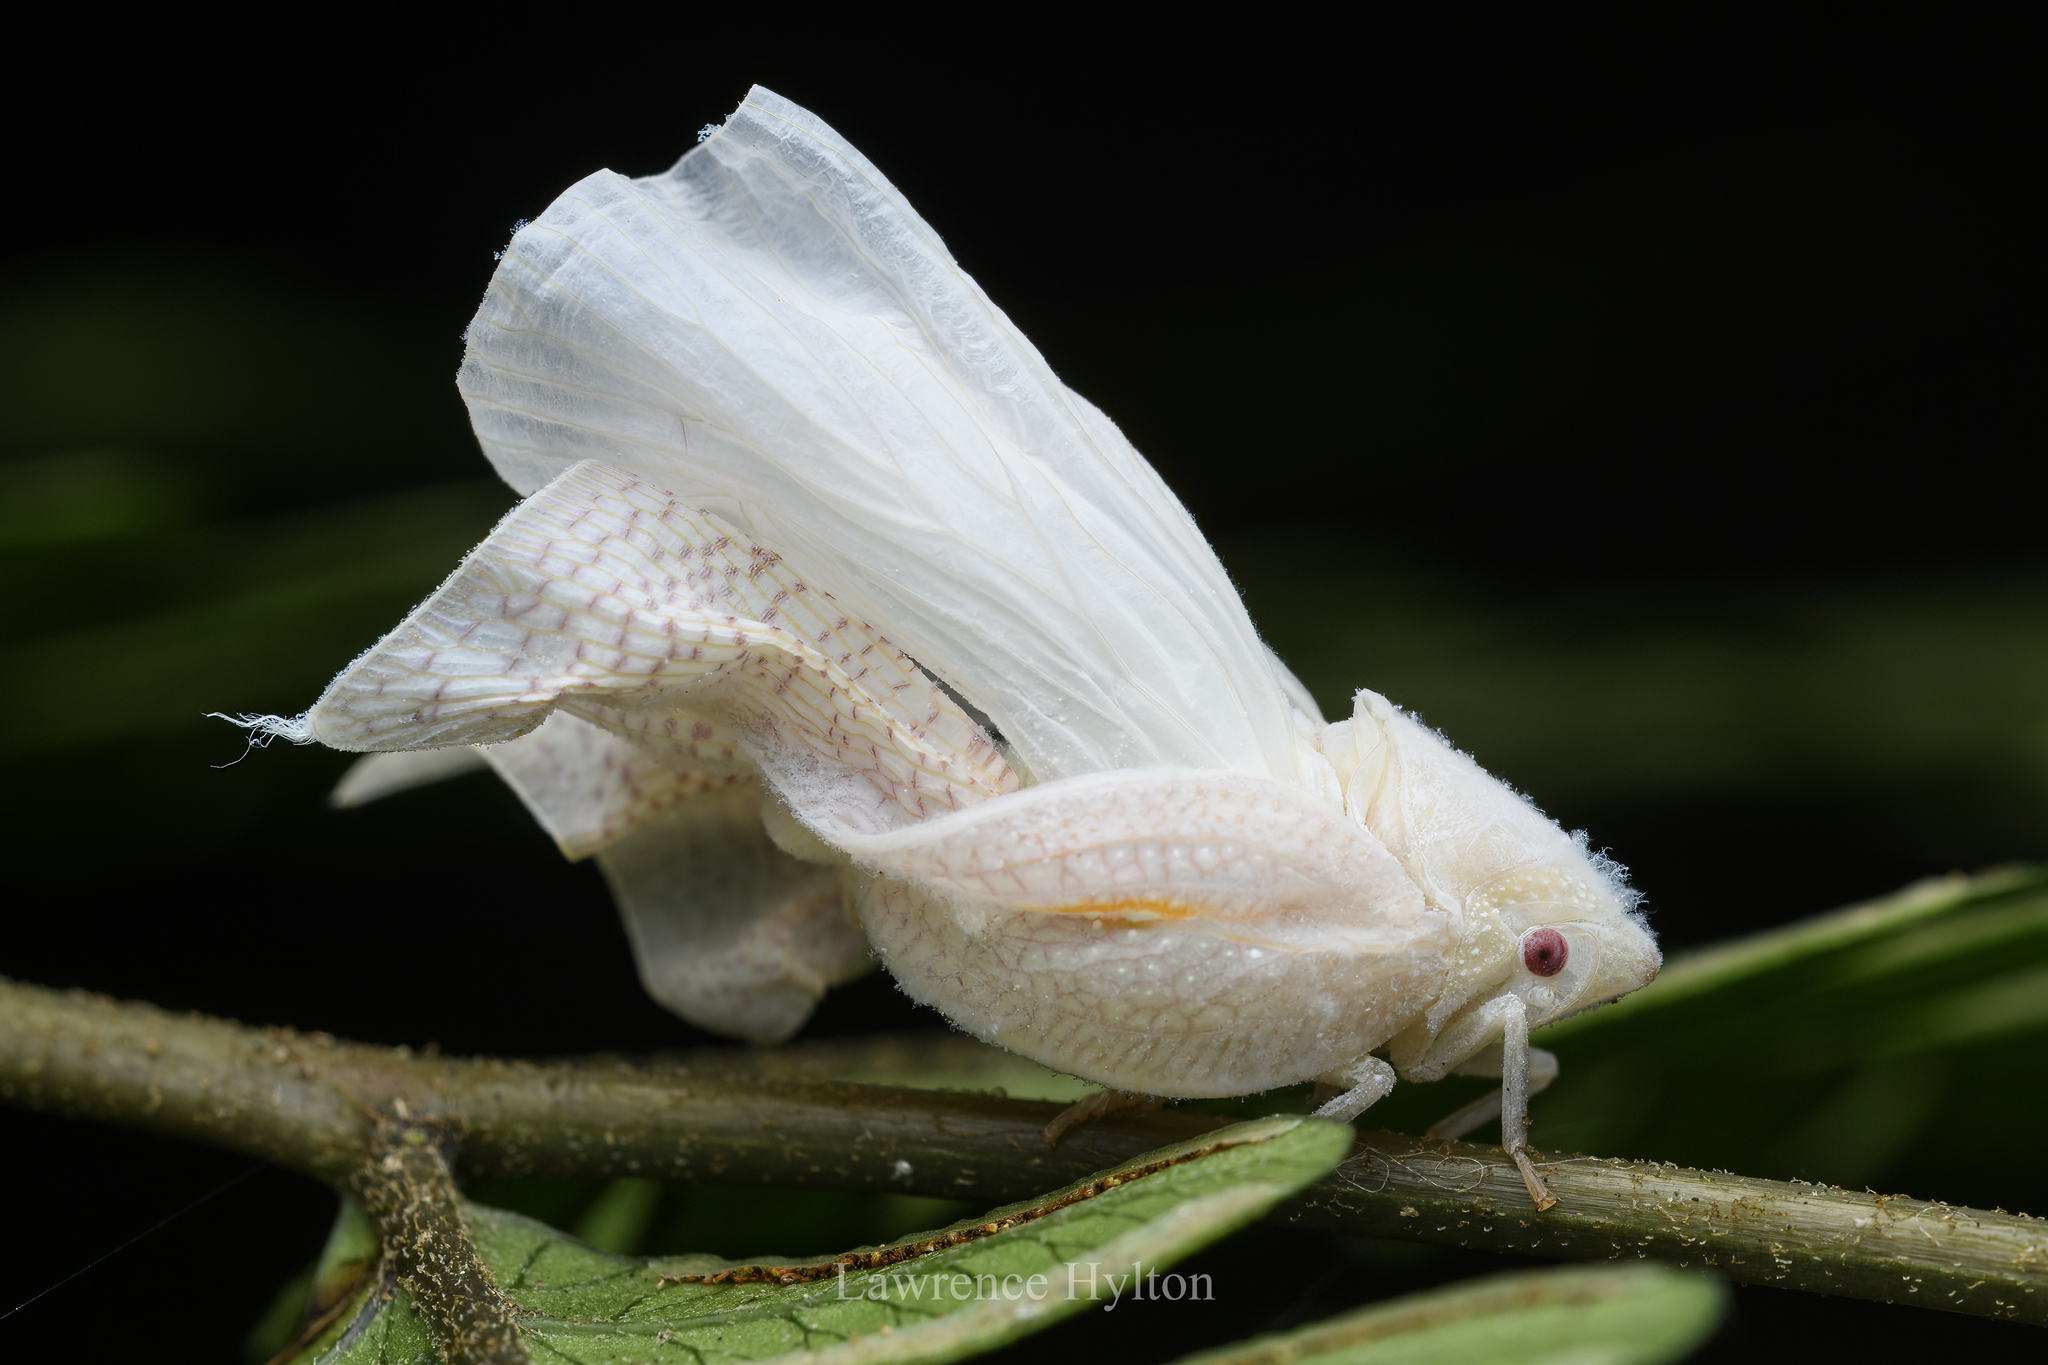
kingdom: Animalia
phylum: Arthropoda
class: Insecta
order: Hemiptera
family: Flatidae
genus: Lawana
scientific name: Lawana imitata
